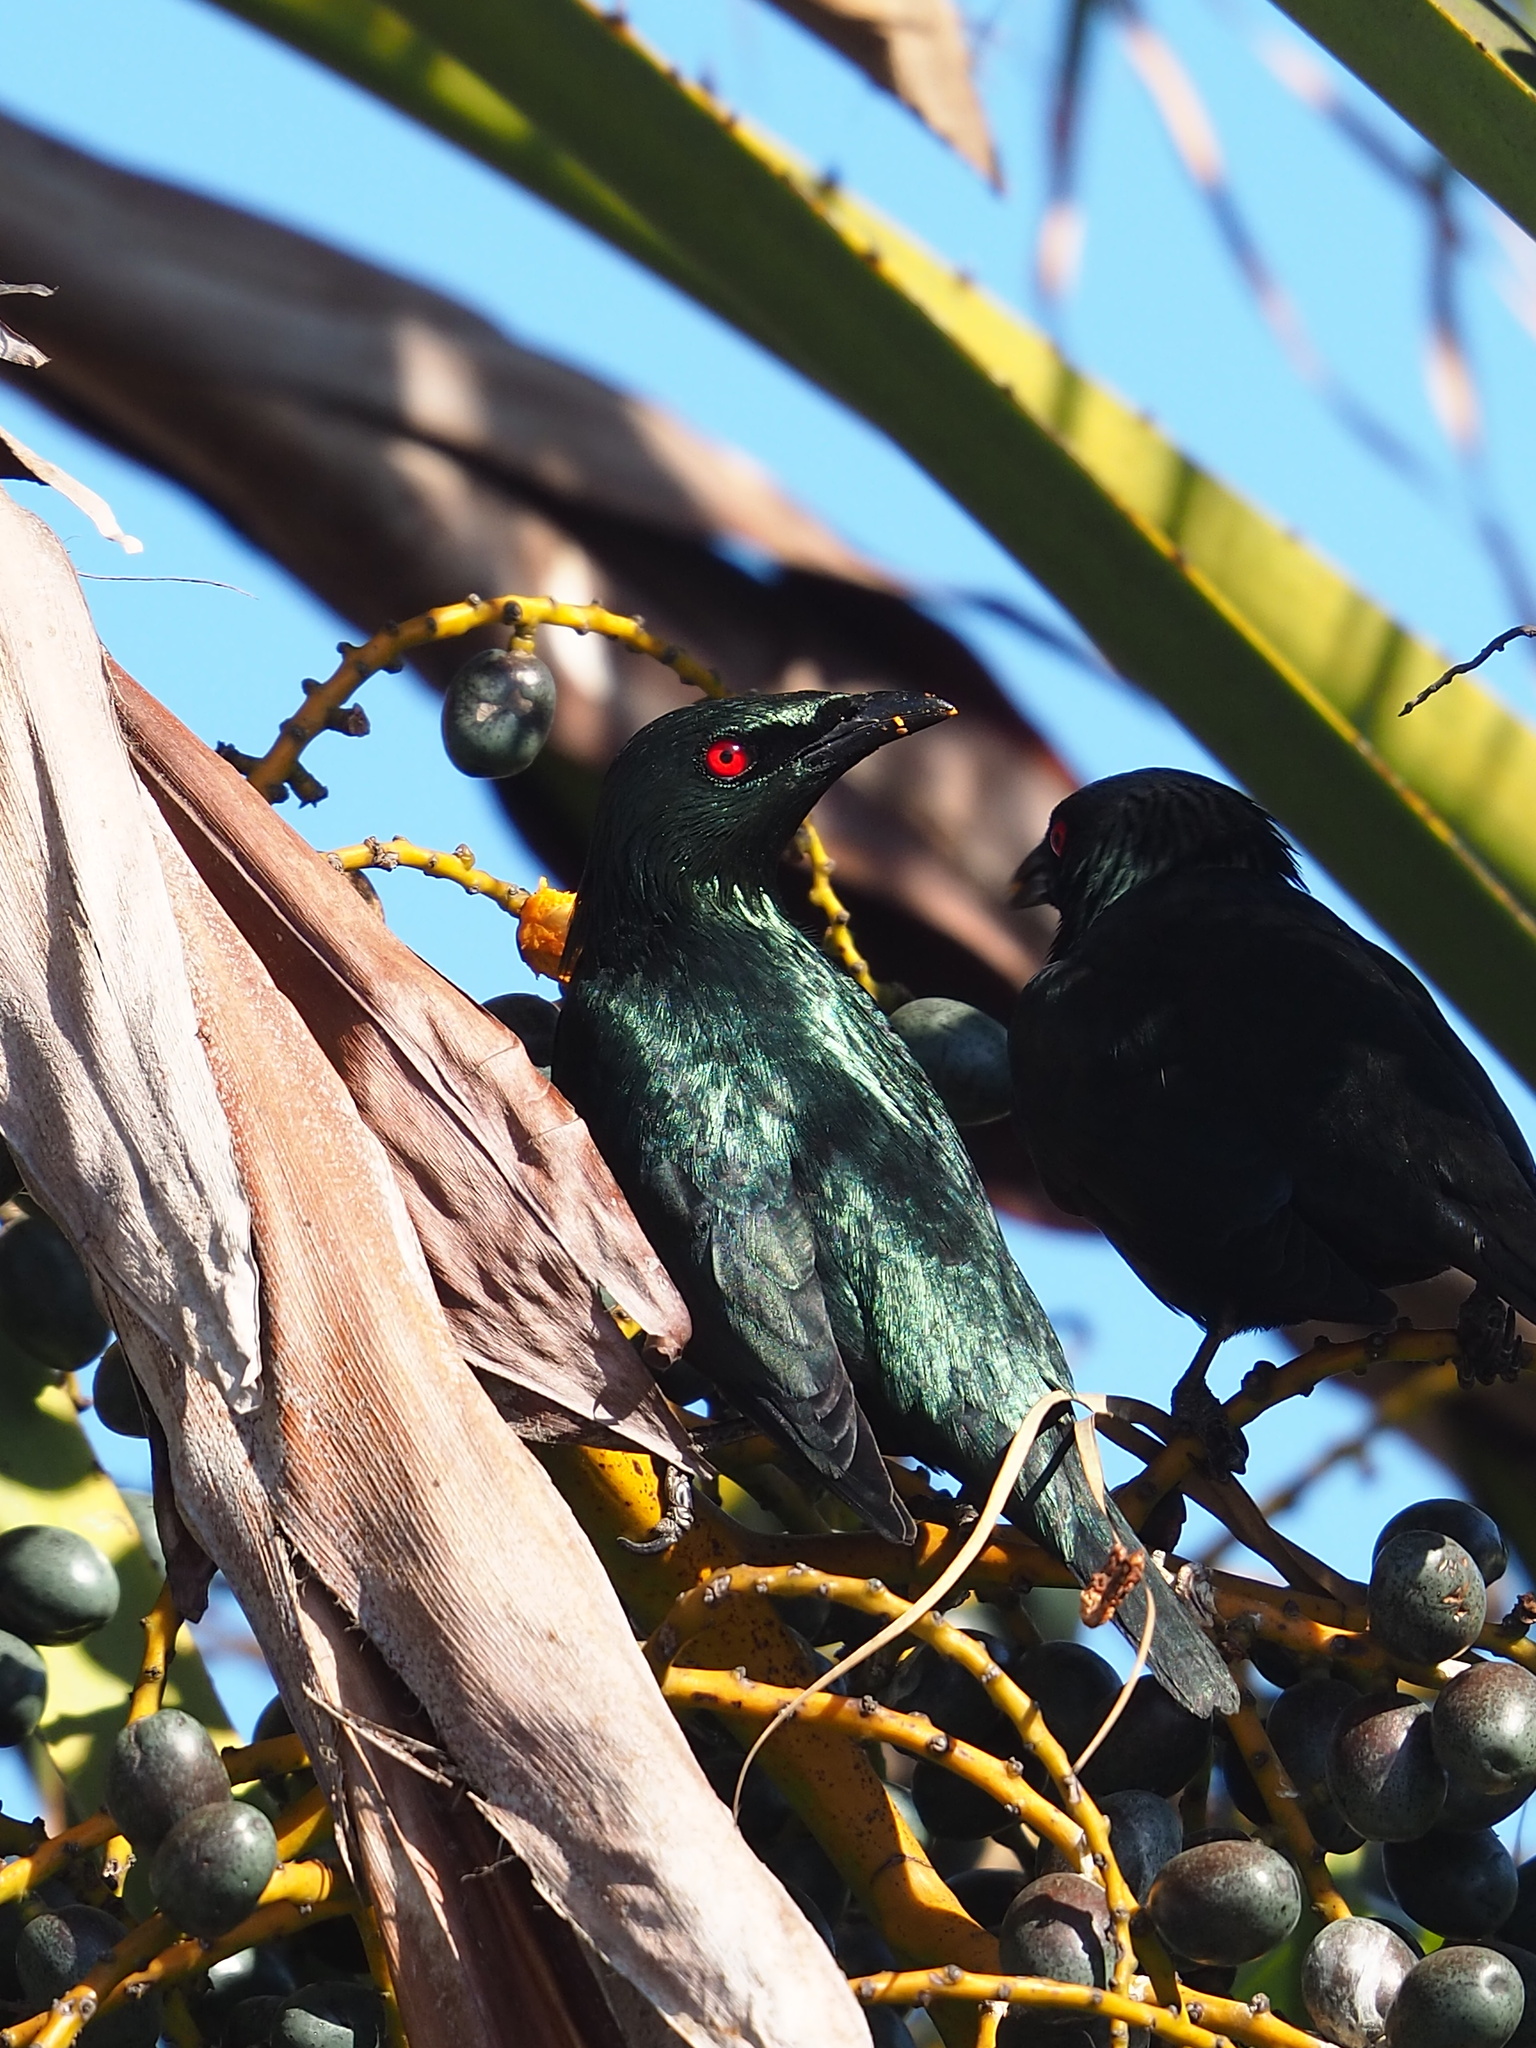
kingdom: Animalia
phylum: Chordata
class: Aves
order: Passeriformes
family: Sturnidae
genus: Aplonis
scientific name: Aplonis panayensis
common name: Asian glossy starling
